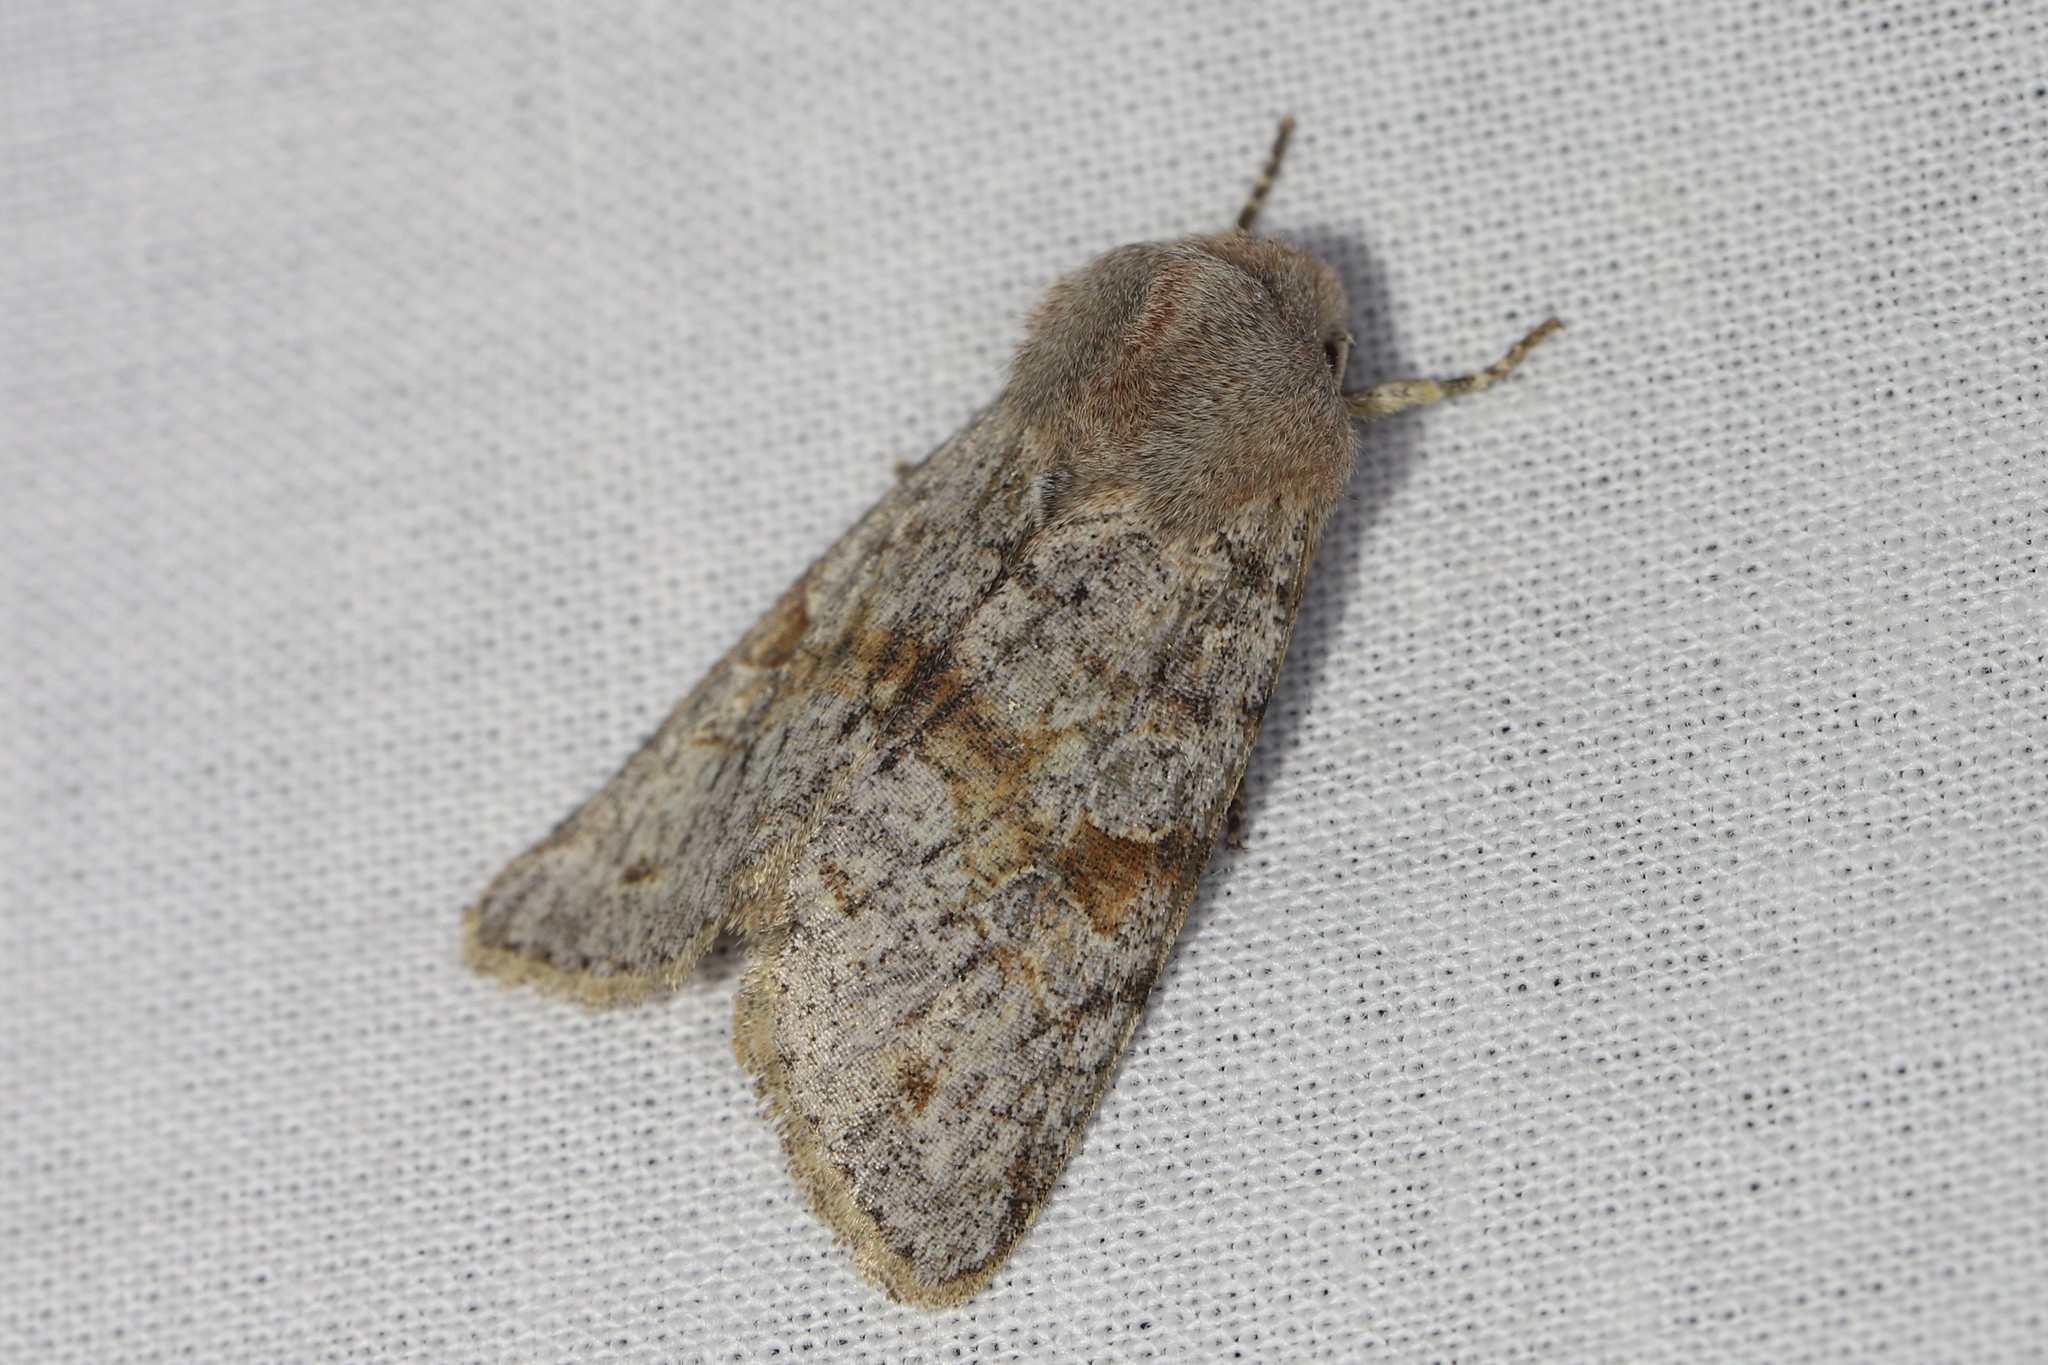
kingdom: Animalia
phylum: Arthropoda
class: Insecta
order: Lepidoptera
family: Noctuidae
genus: Orthosia
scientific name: Orthosia incerta
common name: Clouded drab
